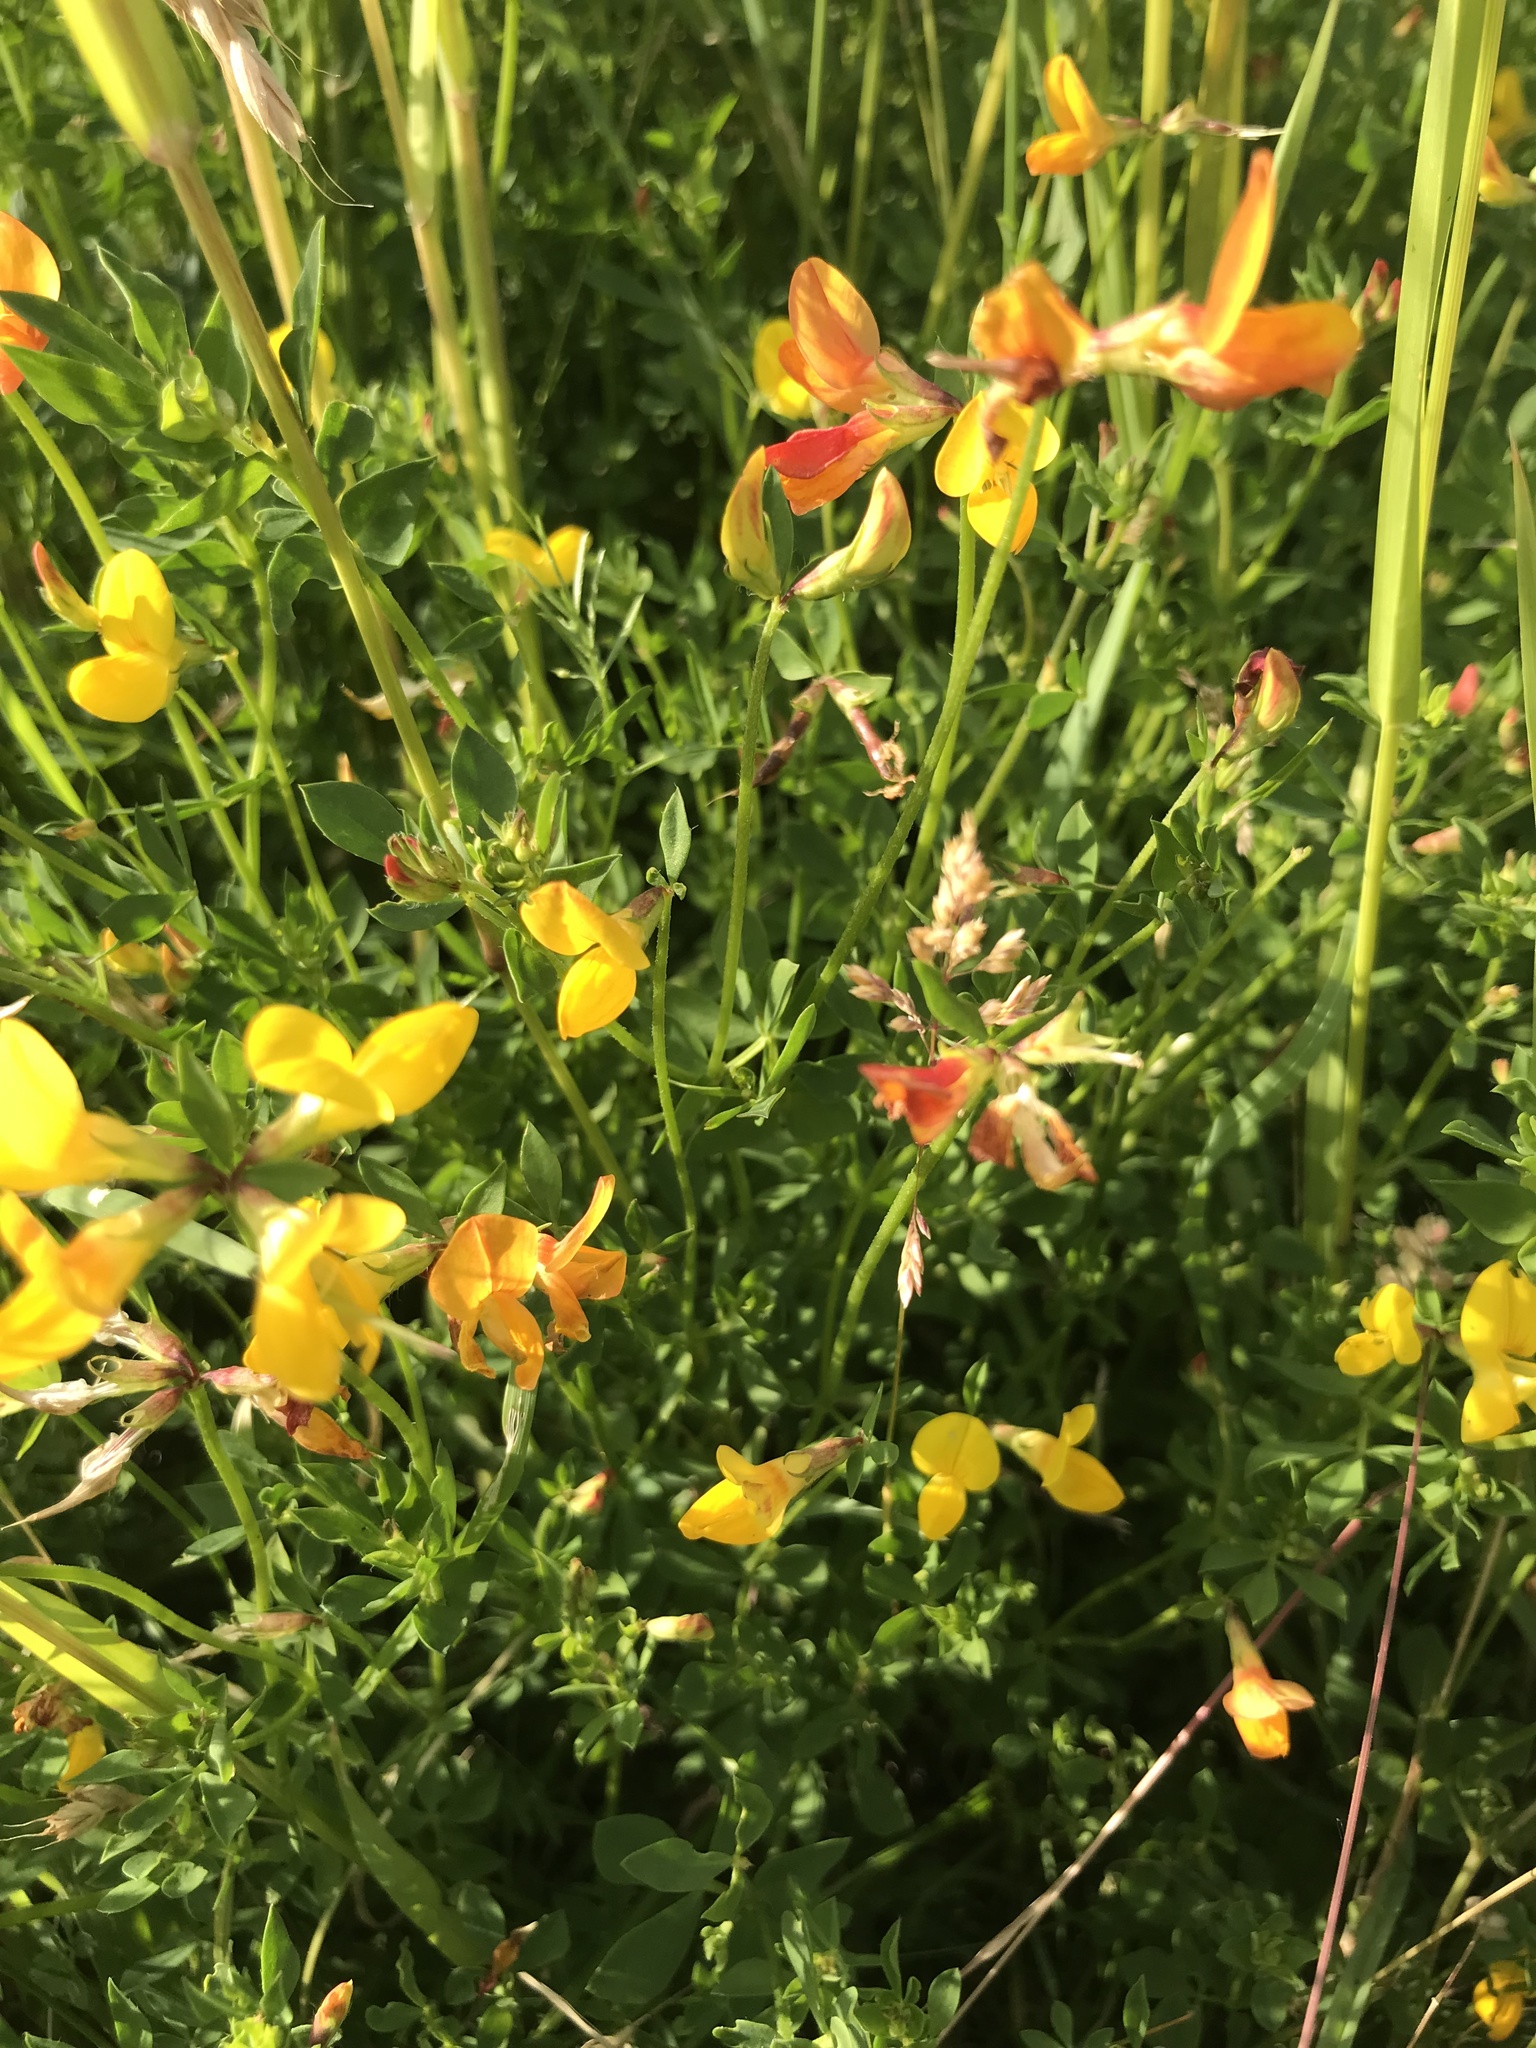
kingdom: Plantae
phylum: Tracheophyta
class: Magnoliopsida
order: Fabales
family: Fabaceae
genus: Lotus
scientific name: Lotus corniculatus
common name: Common bird's-foot-trefoil
